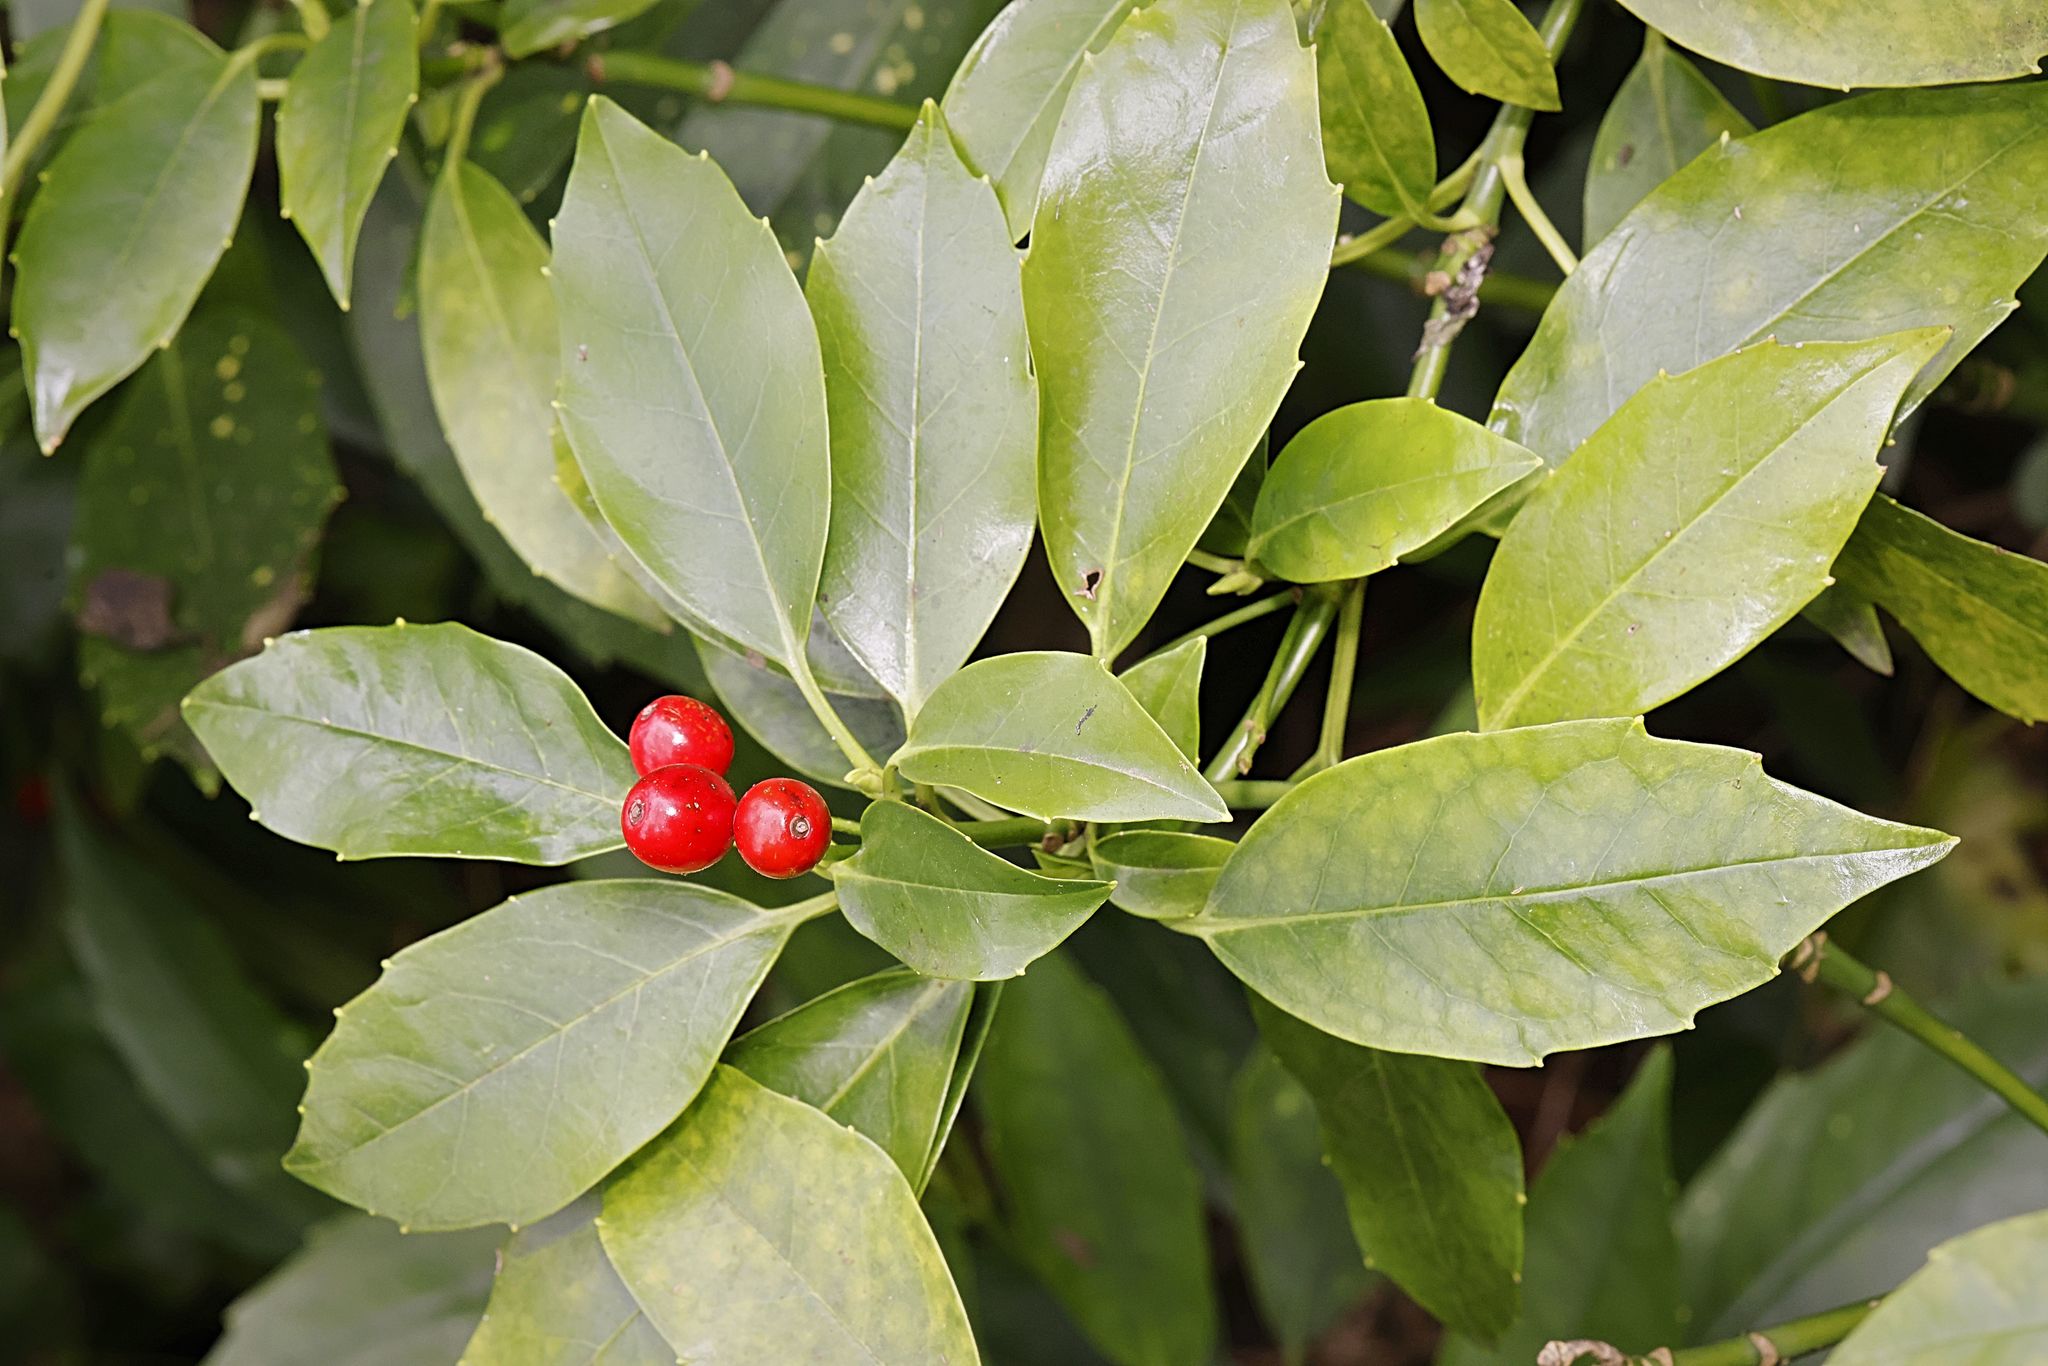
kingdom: Plantae
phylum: Tracheophyta
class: Magnoliopsida
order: Garryales
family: Garryaceae
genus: Aucuba
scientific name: Aucuba japonica
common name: Spotted-laurel
